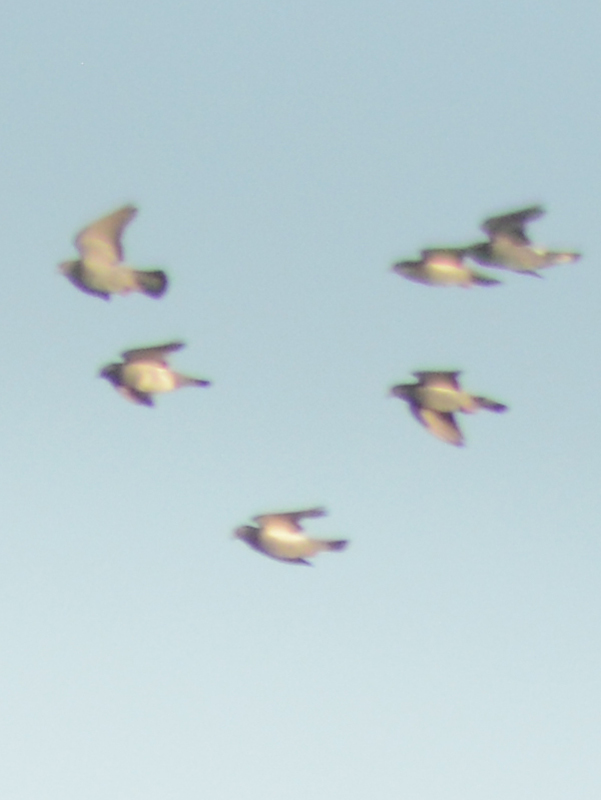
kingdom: Animalia
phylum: Chordata
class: Aves
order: Columbiformes
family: Columbidae
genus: Columba
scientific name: Columba livia
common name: Rock pigeon
